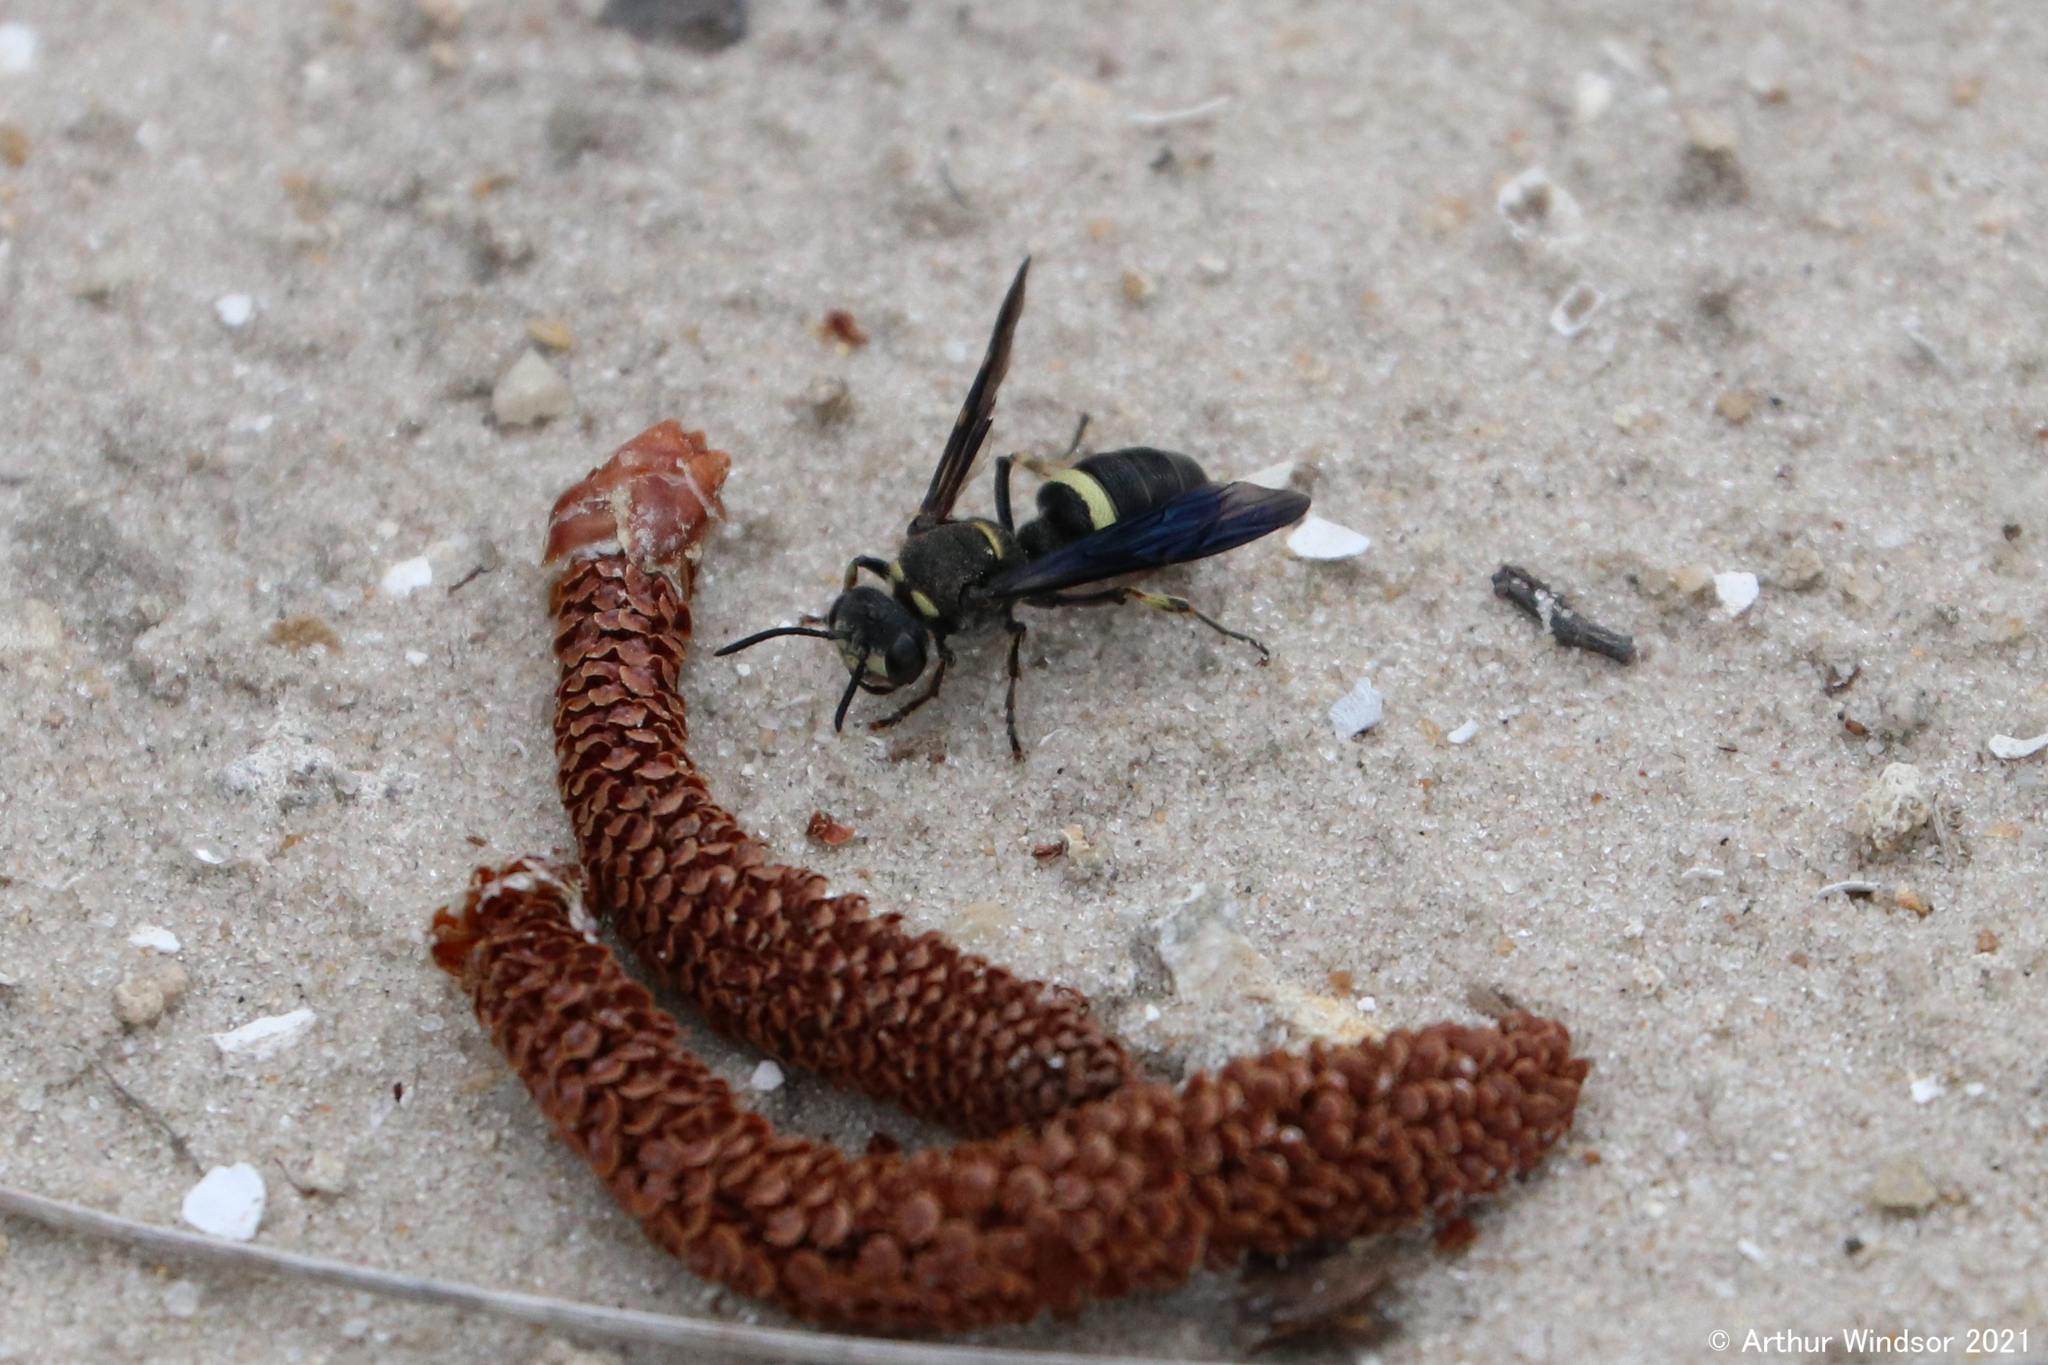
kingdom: Animalia
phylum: Arthropoda
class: Insecta
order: Hymenoptera
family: Crabronidae
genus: Cerceris
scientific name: Cerceris fumipennis
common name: Smokey-winged beetle bandit wasp
